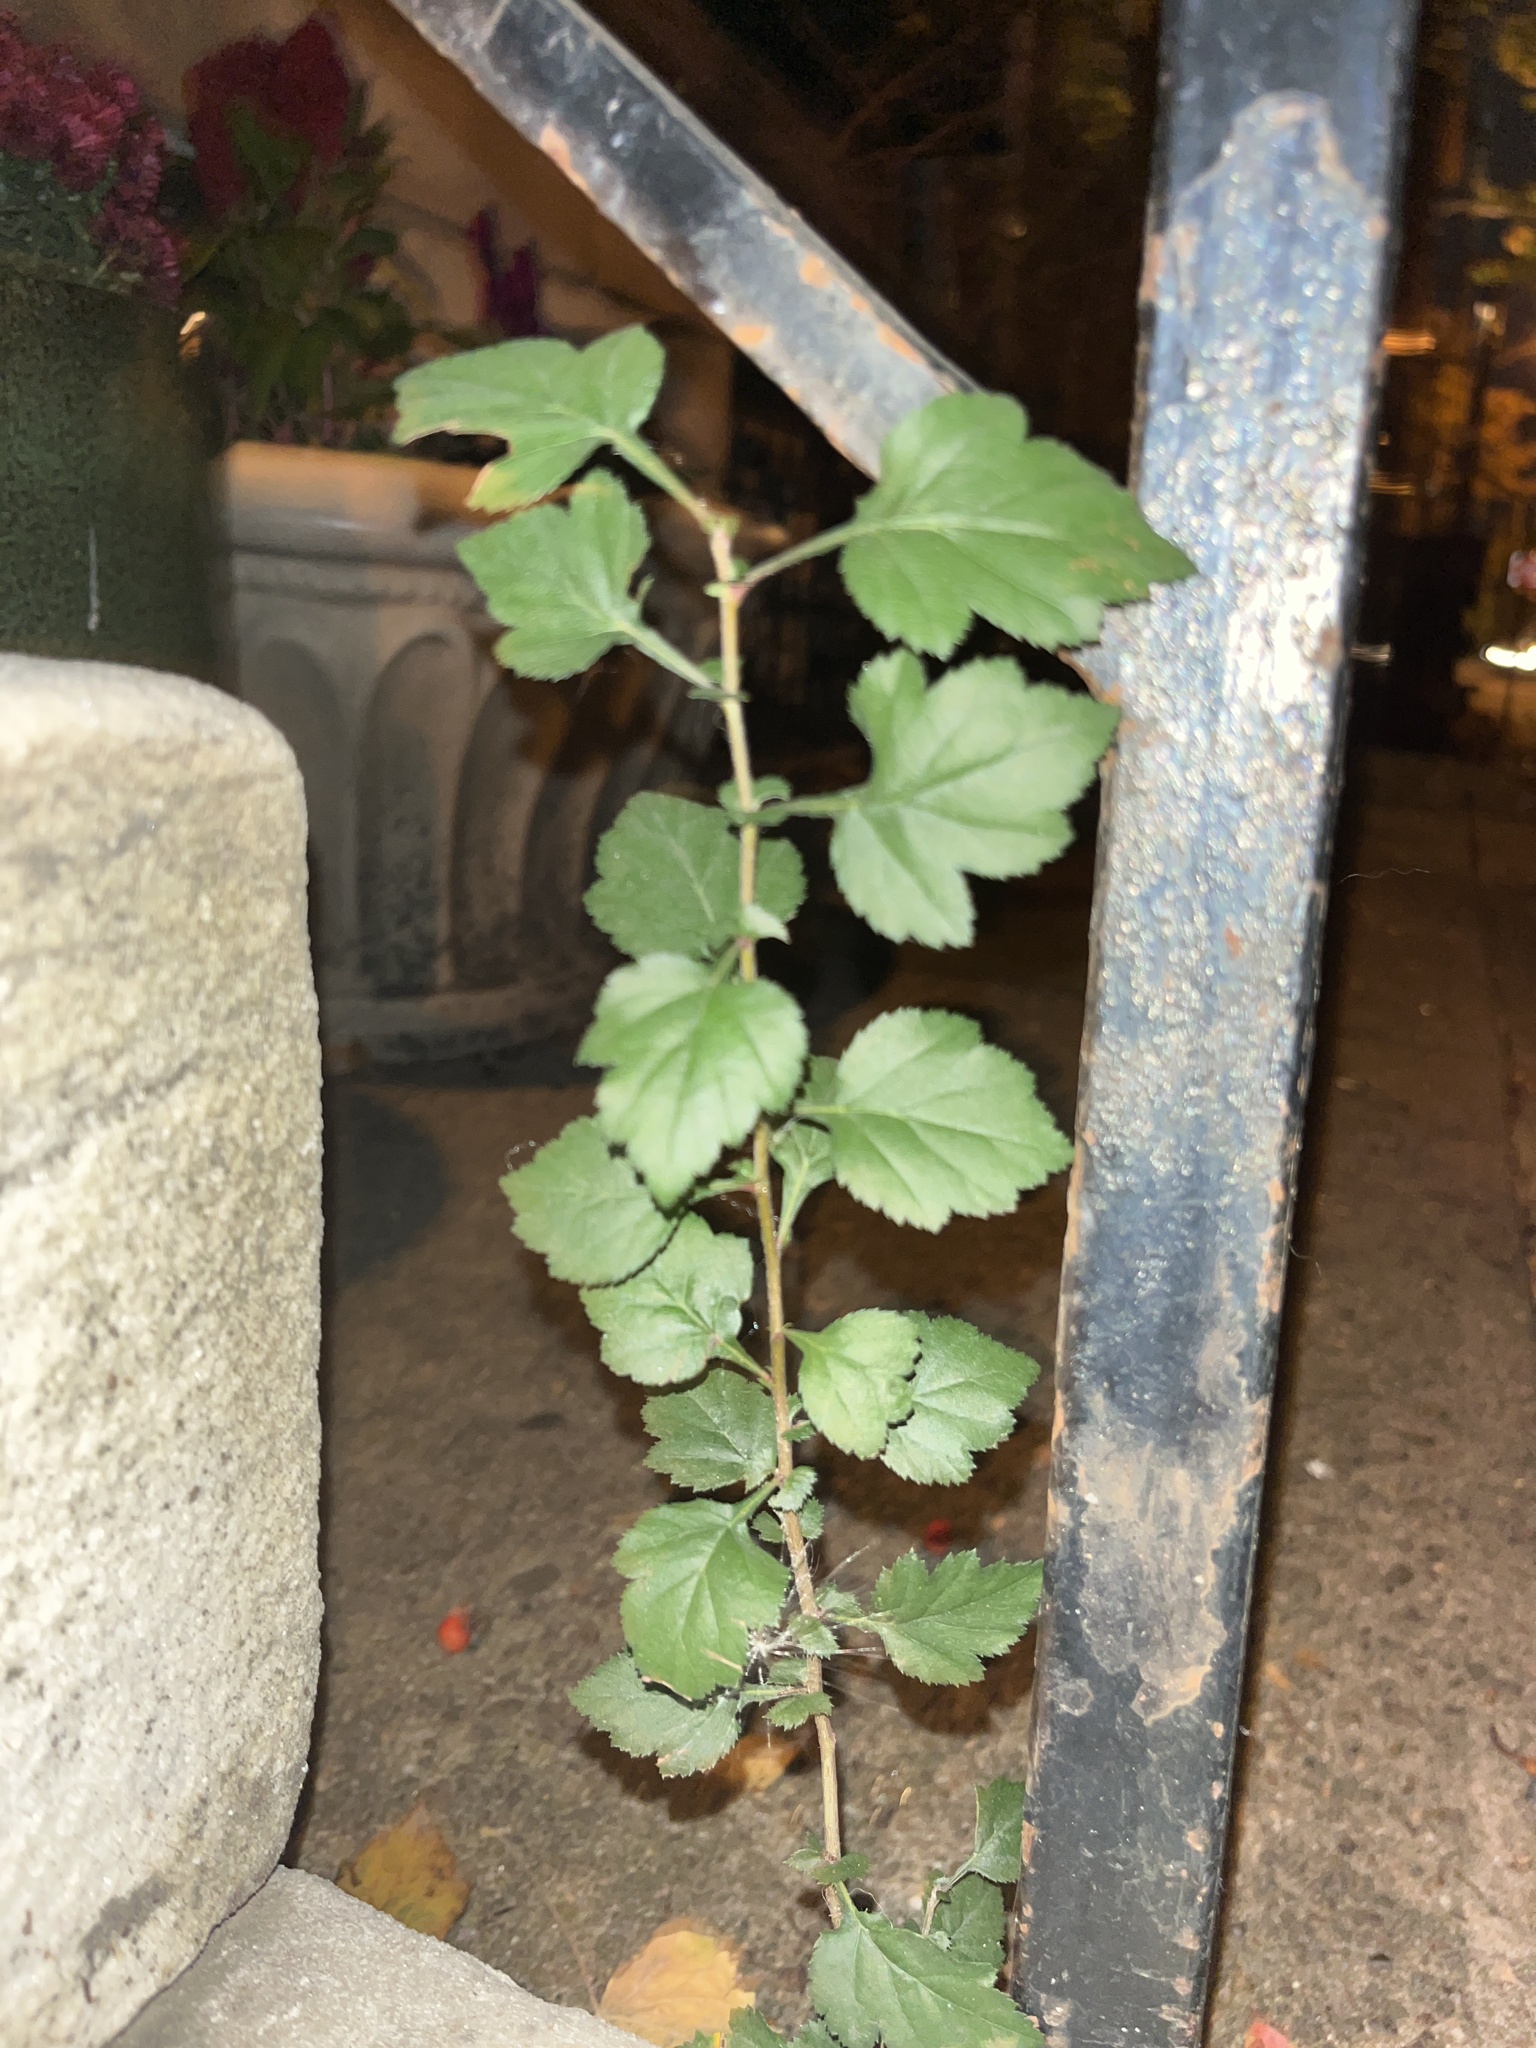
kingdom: Plantae
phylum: Tracheophyta
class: Magnoliopsida
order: Rosales
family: Moraceae
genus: Morus
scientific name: Morus alba
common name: White mulberry
